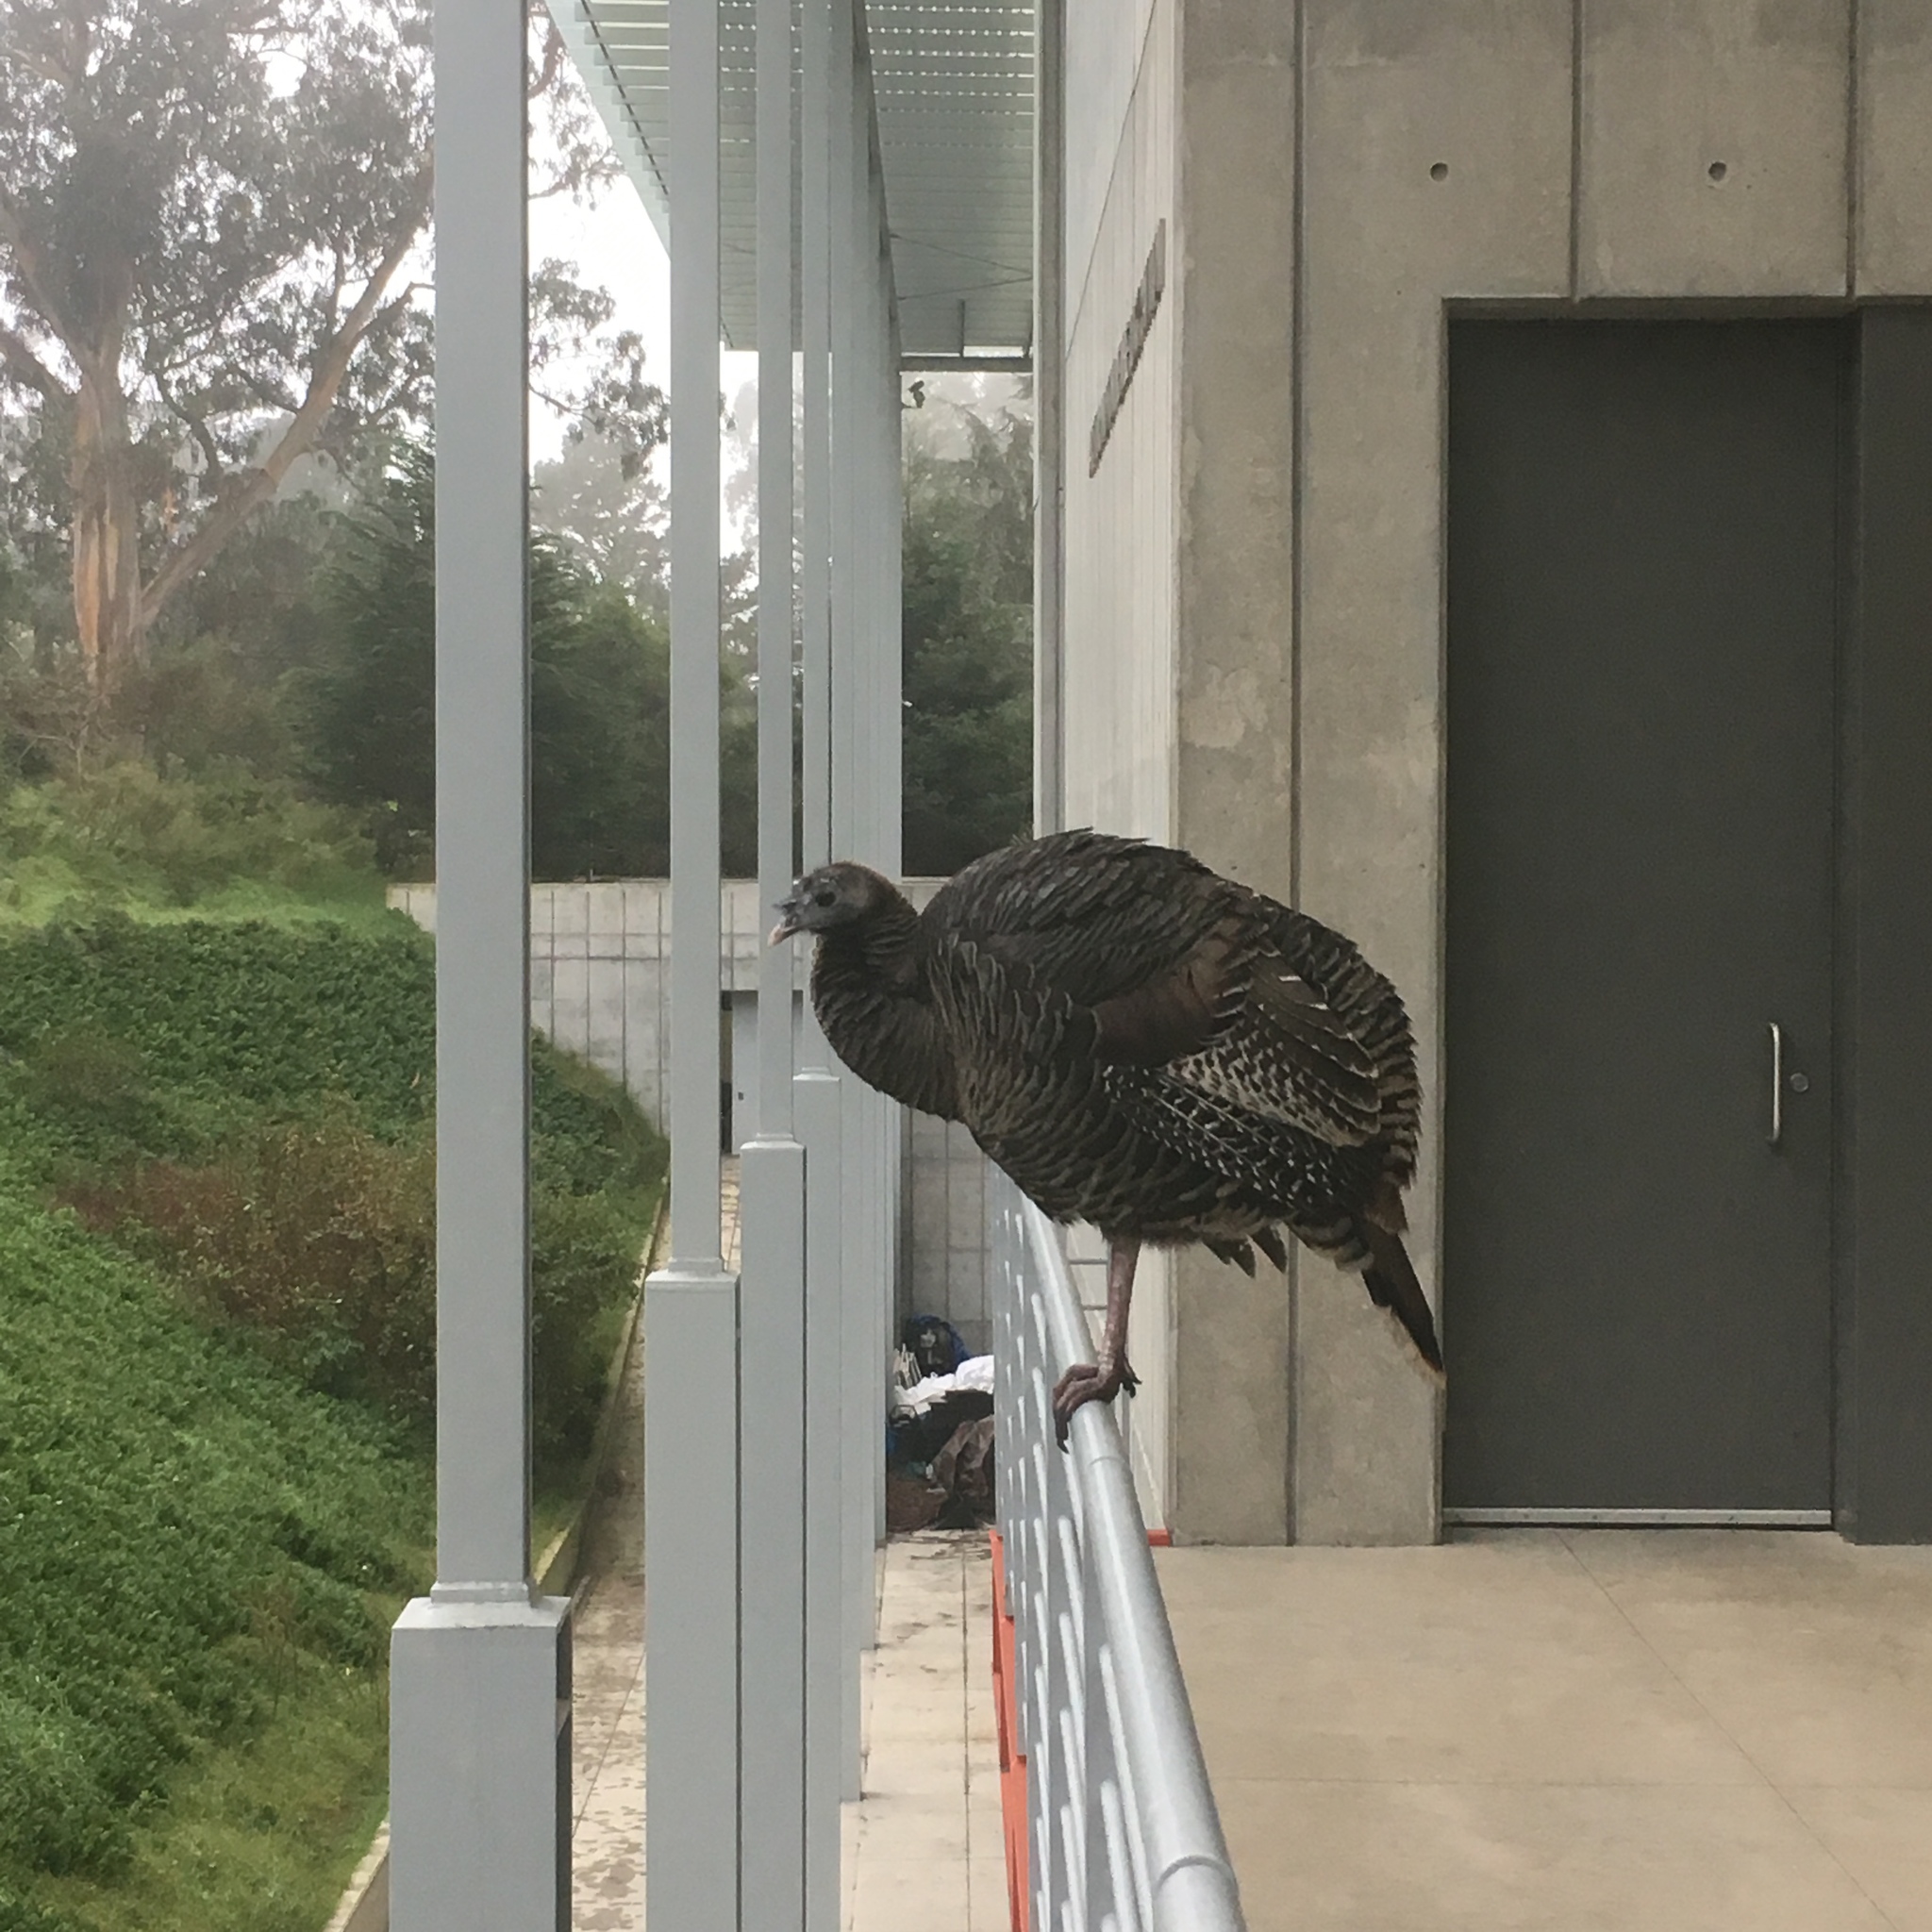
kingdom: Animalia
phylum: Chordata
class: Aves
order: Galliformes
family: Phasianidae
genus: Meleagris
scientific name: Meleagris gallopavo
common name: Wild turkey
